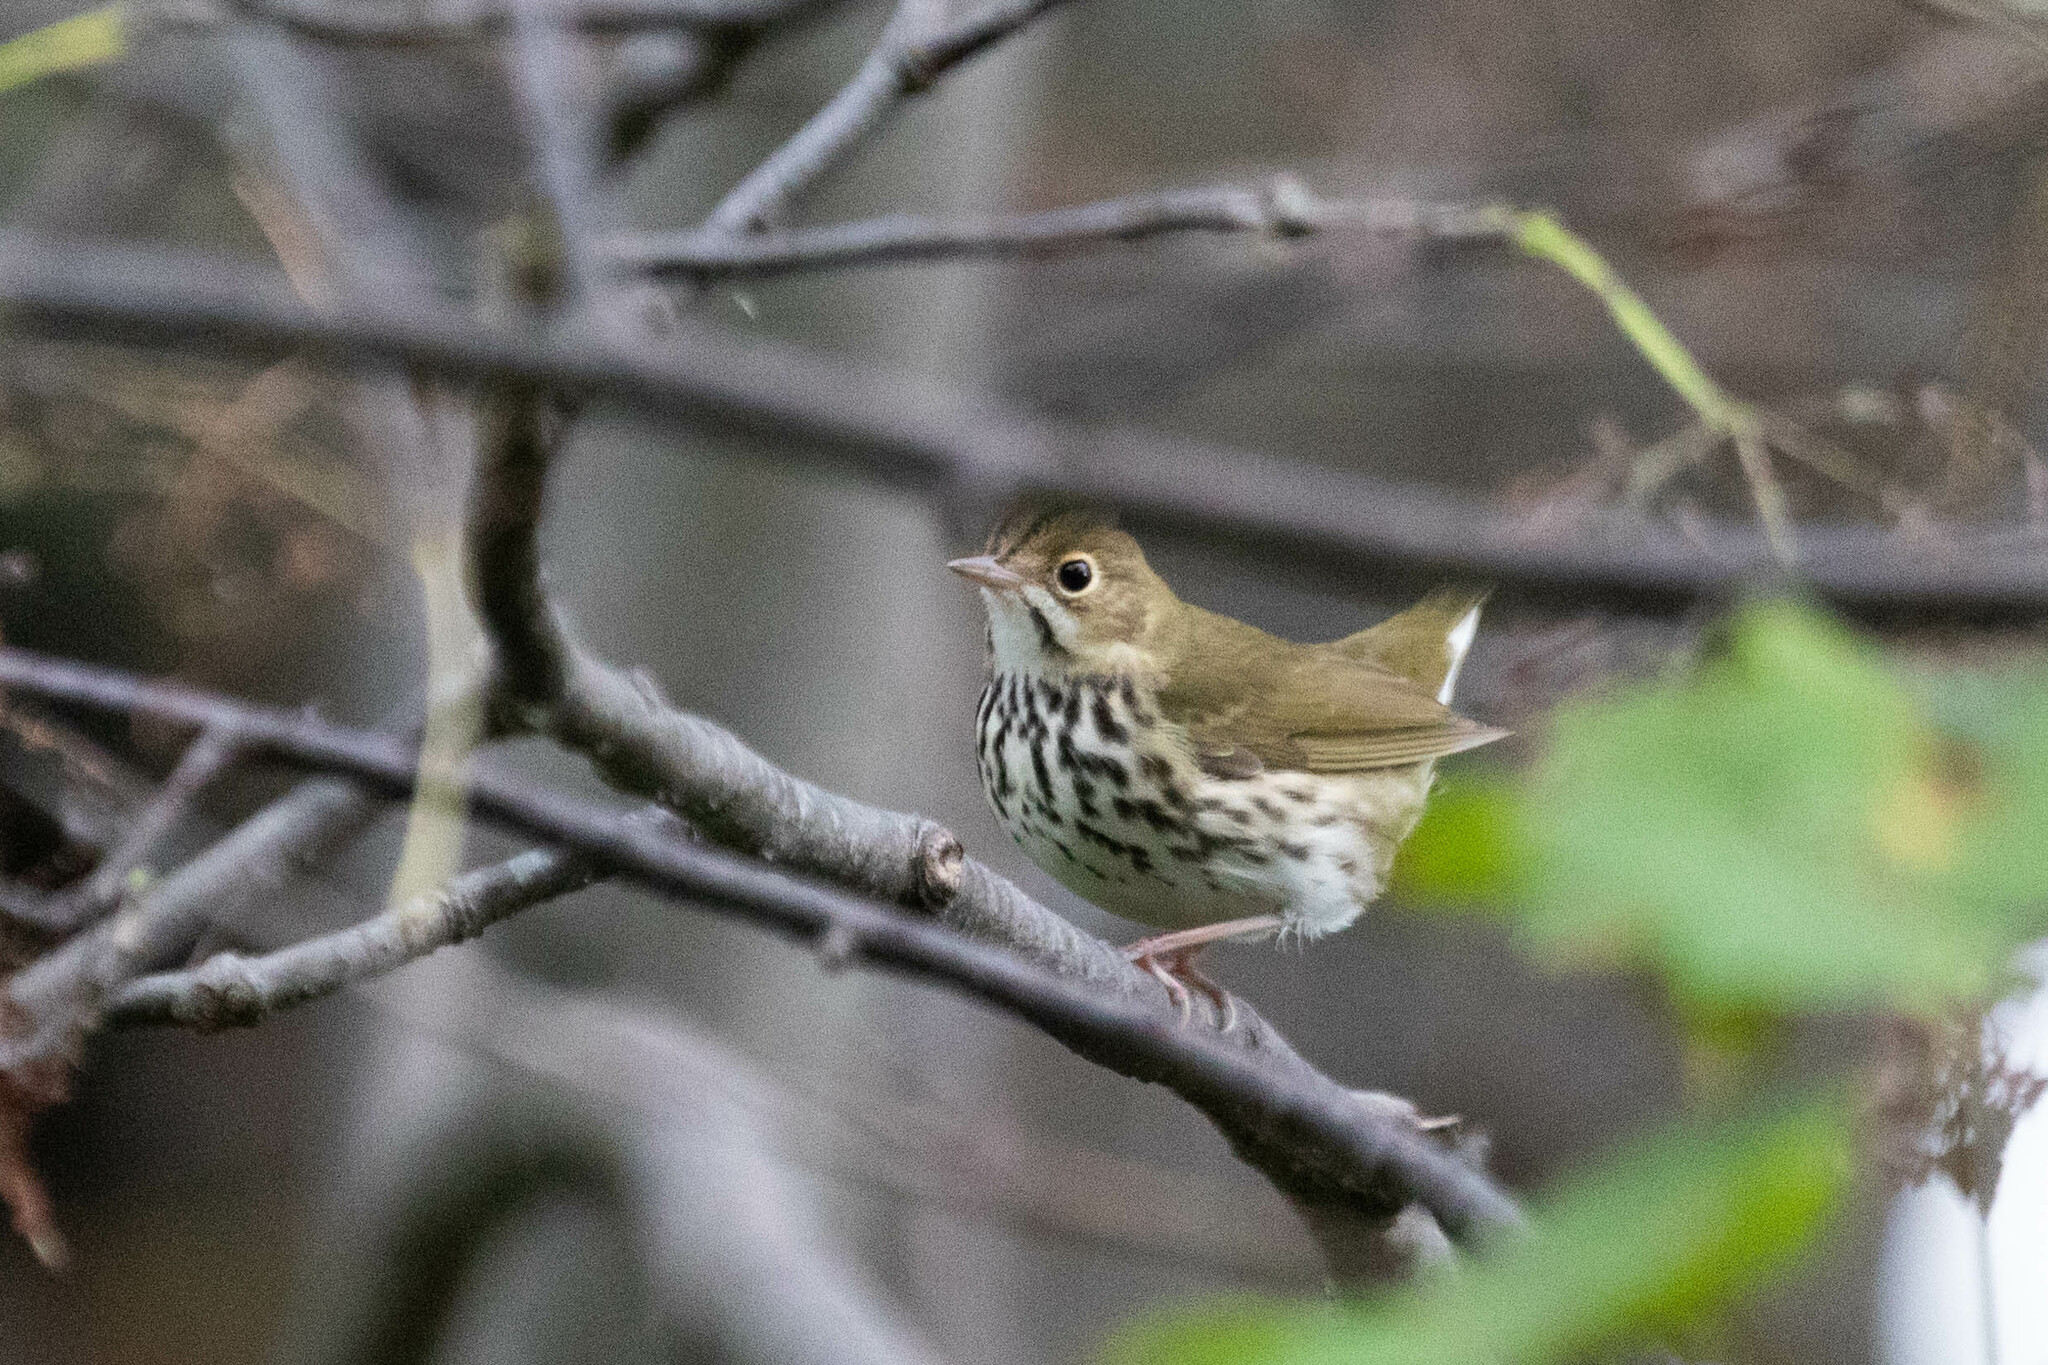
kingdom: Animalia
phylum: Chordata
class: Aves
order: Passeriformes
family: Parulidae
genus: Seiurus
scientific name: Seiurus aurocapilla
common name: Ovenbird
